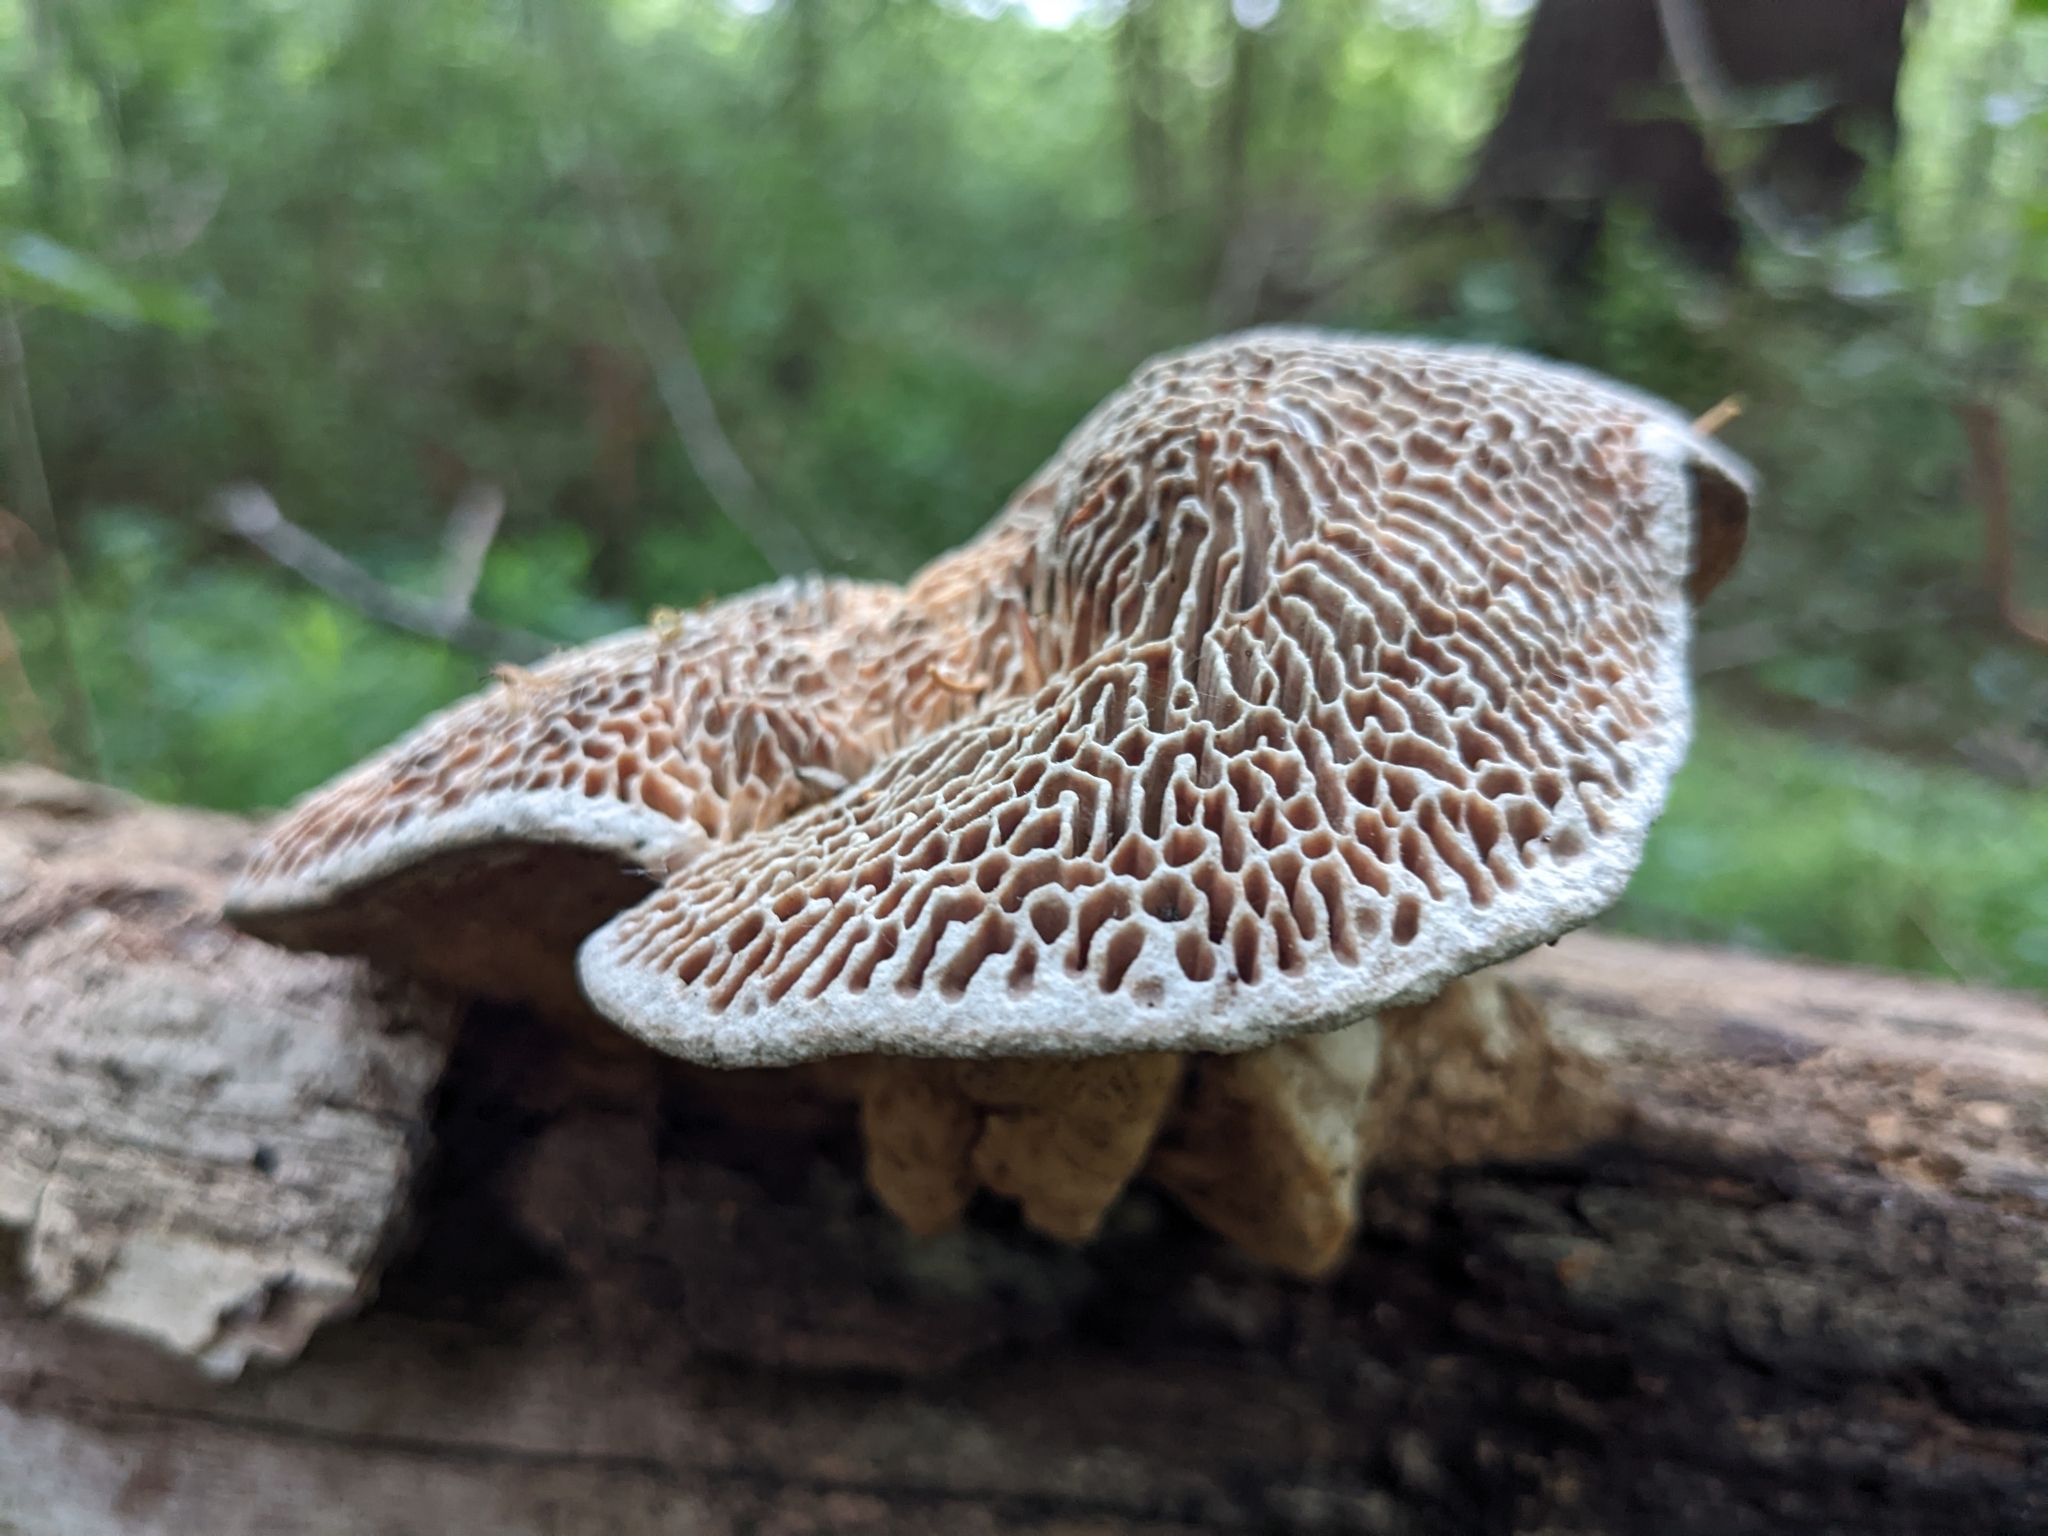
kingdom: Fungi
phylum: Basidiomycota
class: Agaricomycetes
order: Polyporales
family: Fomitopsidaceae
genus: Fomitopsis
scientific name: Fomitopsis
